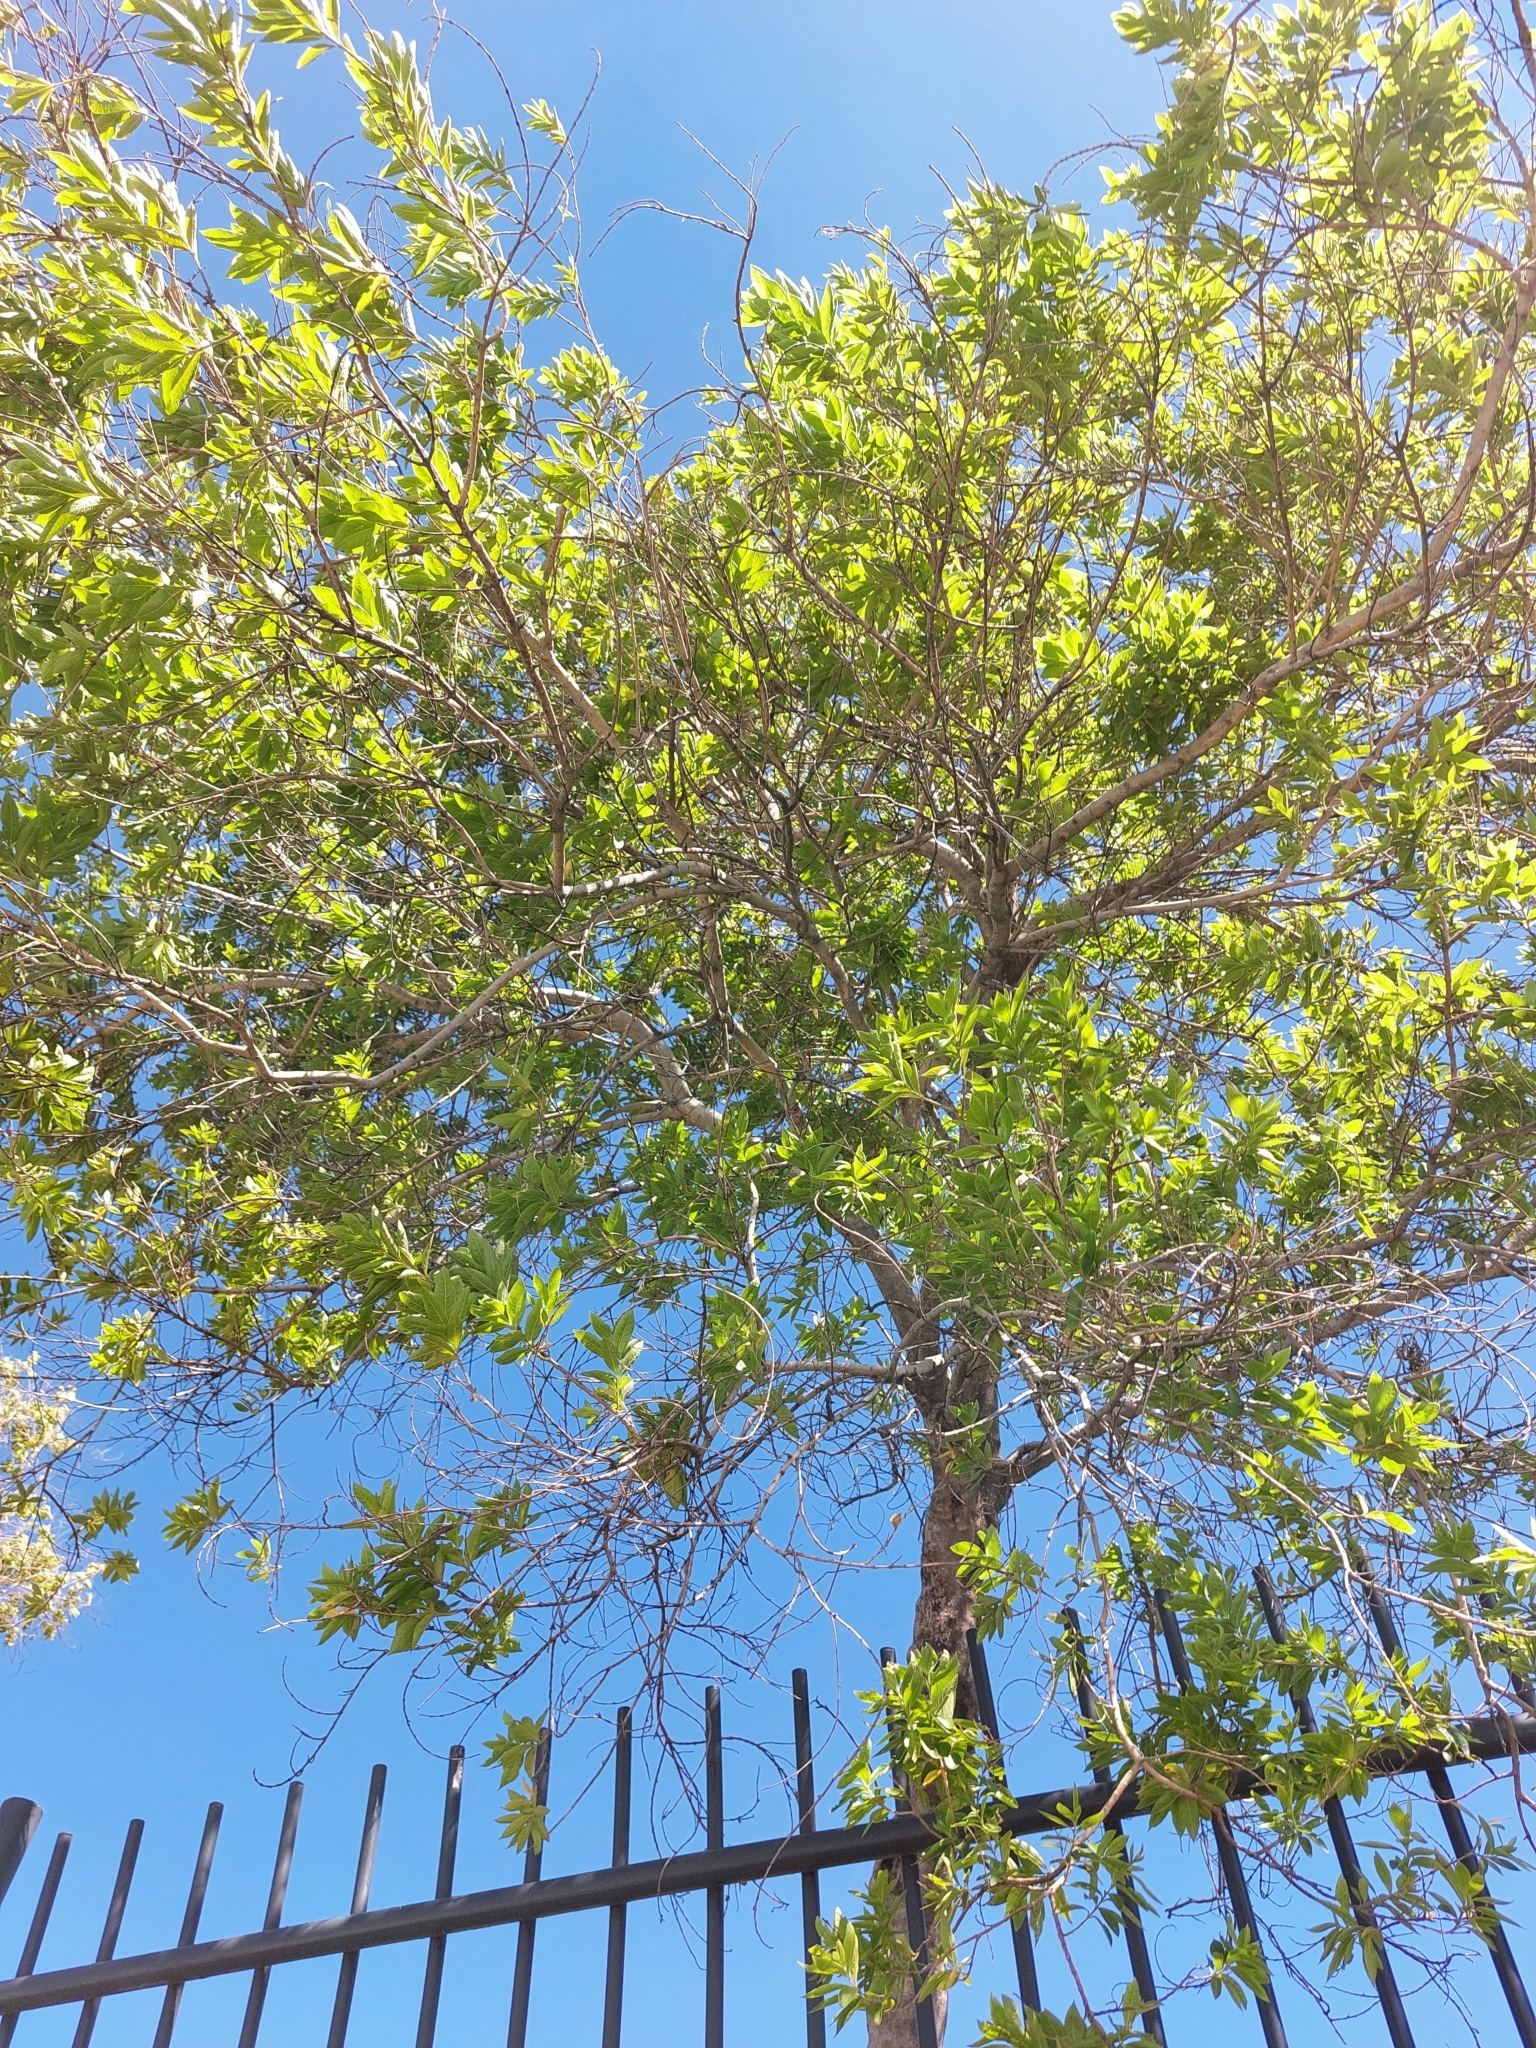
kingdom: Plantae
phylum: Tracheophyta
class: Magnoliopsida
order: Myrtales
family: Combretaceae
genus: Combretum
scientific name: Combretum erythrophyllum
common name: Bush-willow
